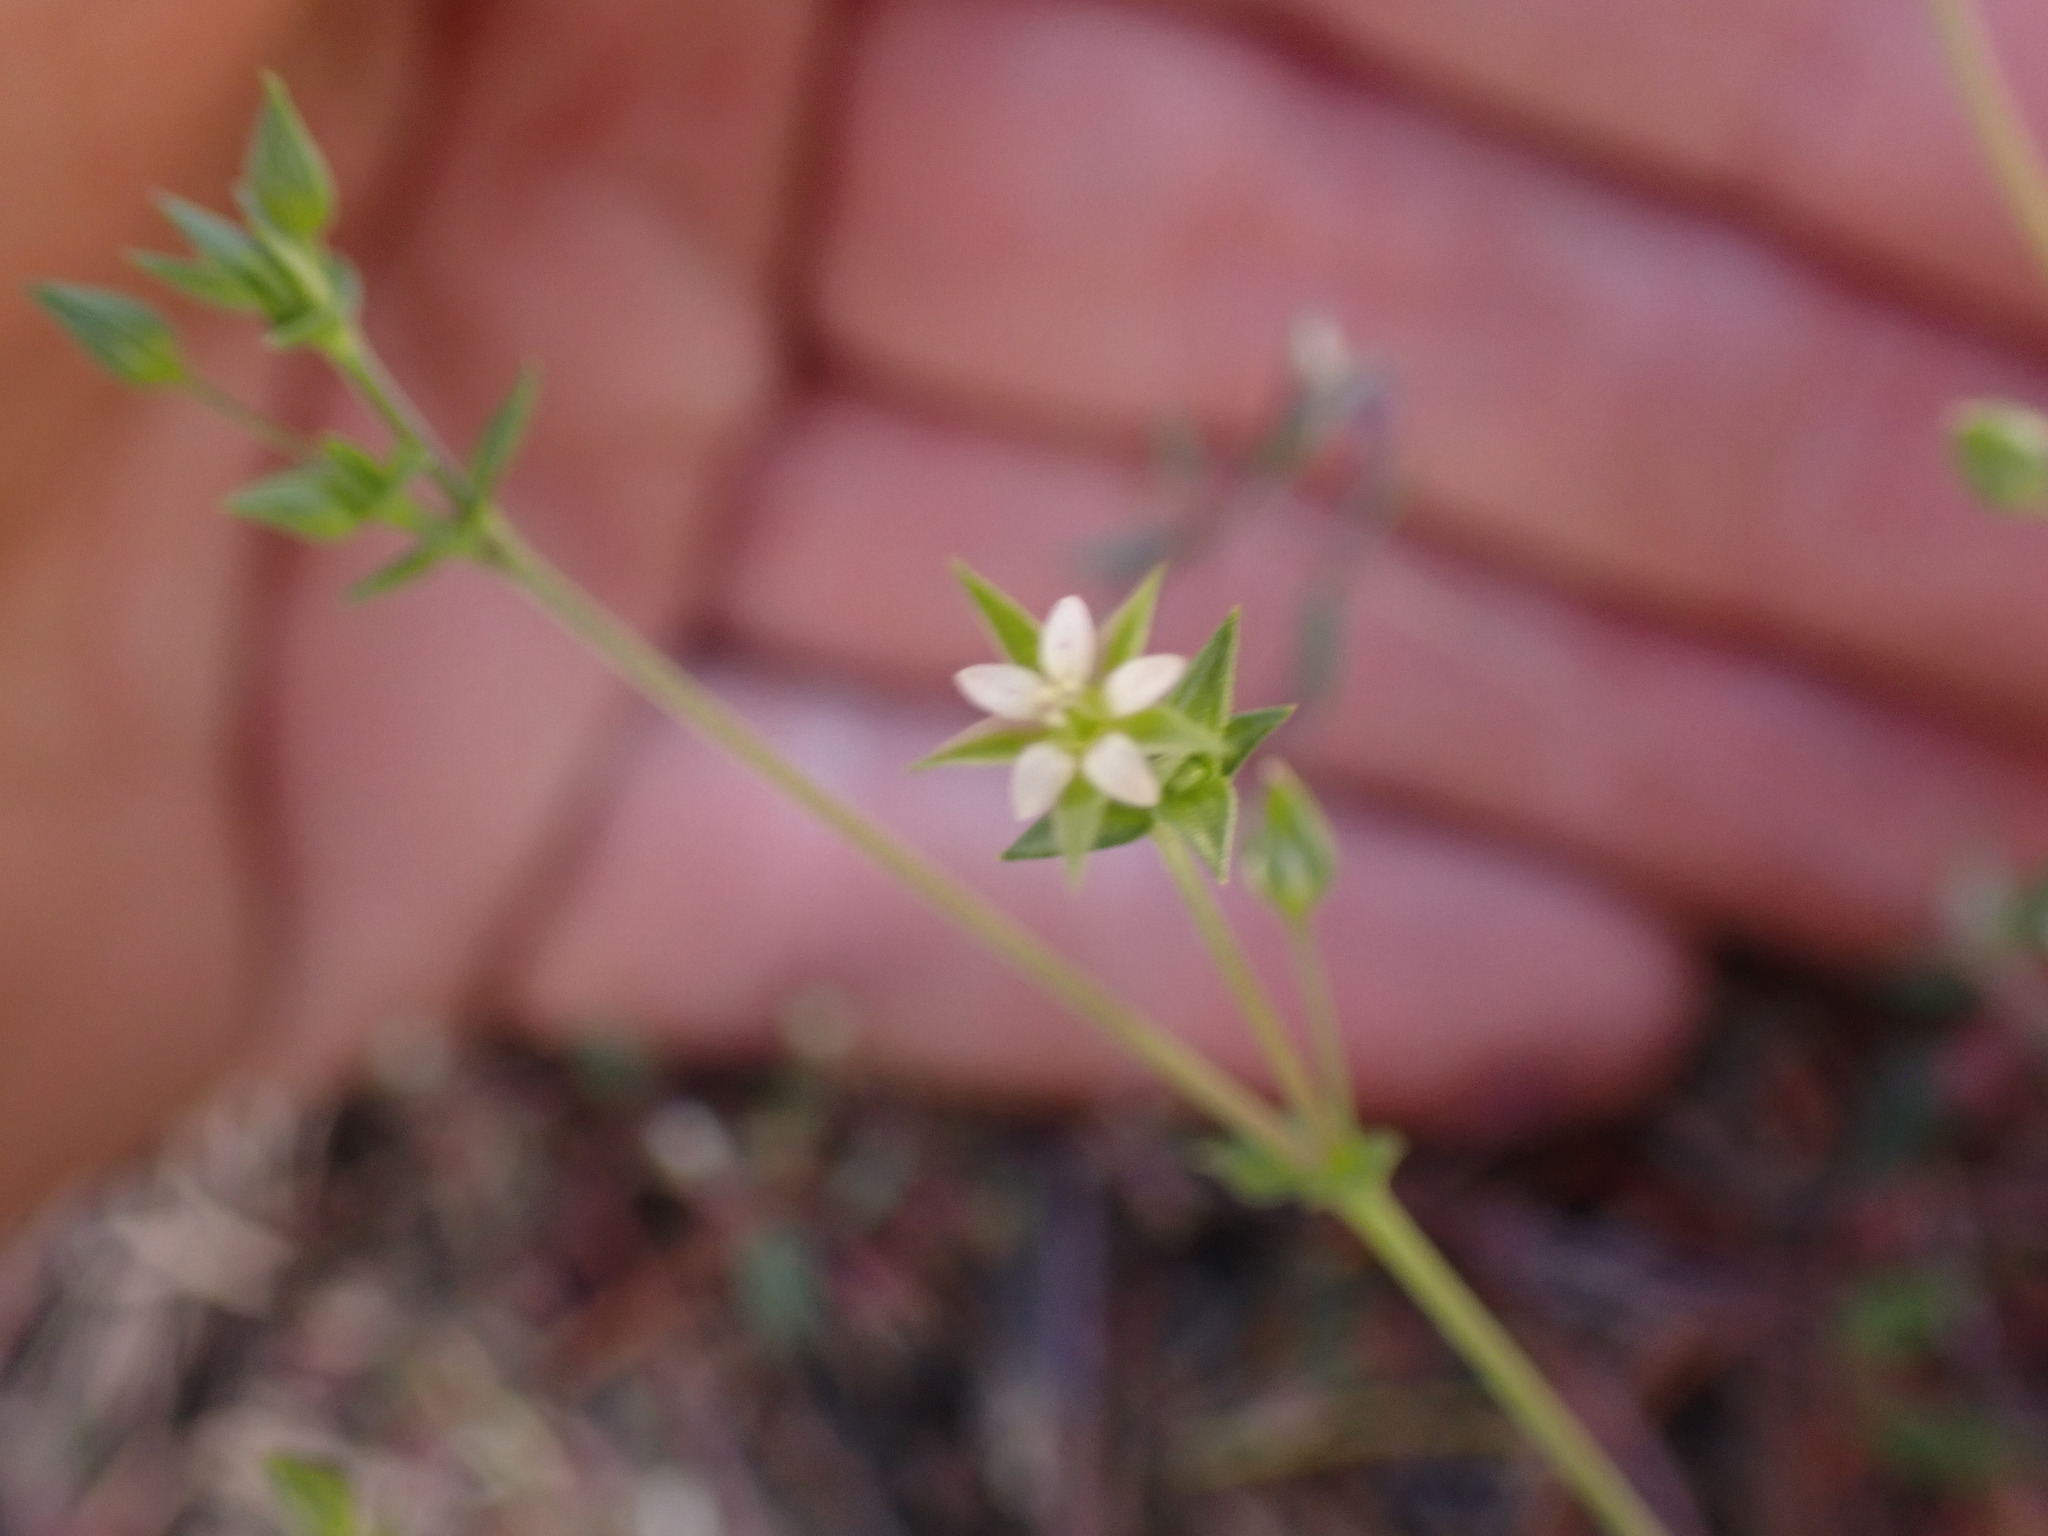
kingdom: Plantae
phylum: Tracheophyta
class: Magnoliopsida
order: Caryophyllales
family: Caryophyllaceae
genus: Arenaria
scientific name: Arenaria serpyllifolia
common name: Thyme-leaved sandwort
